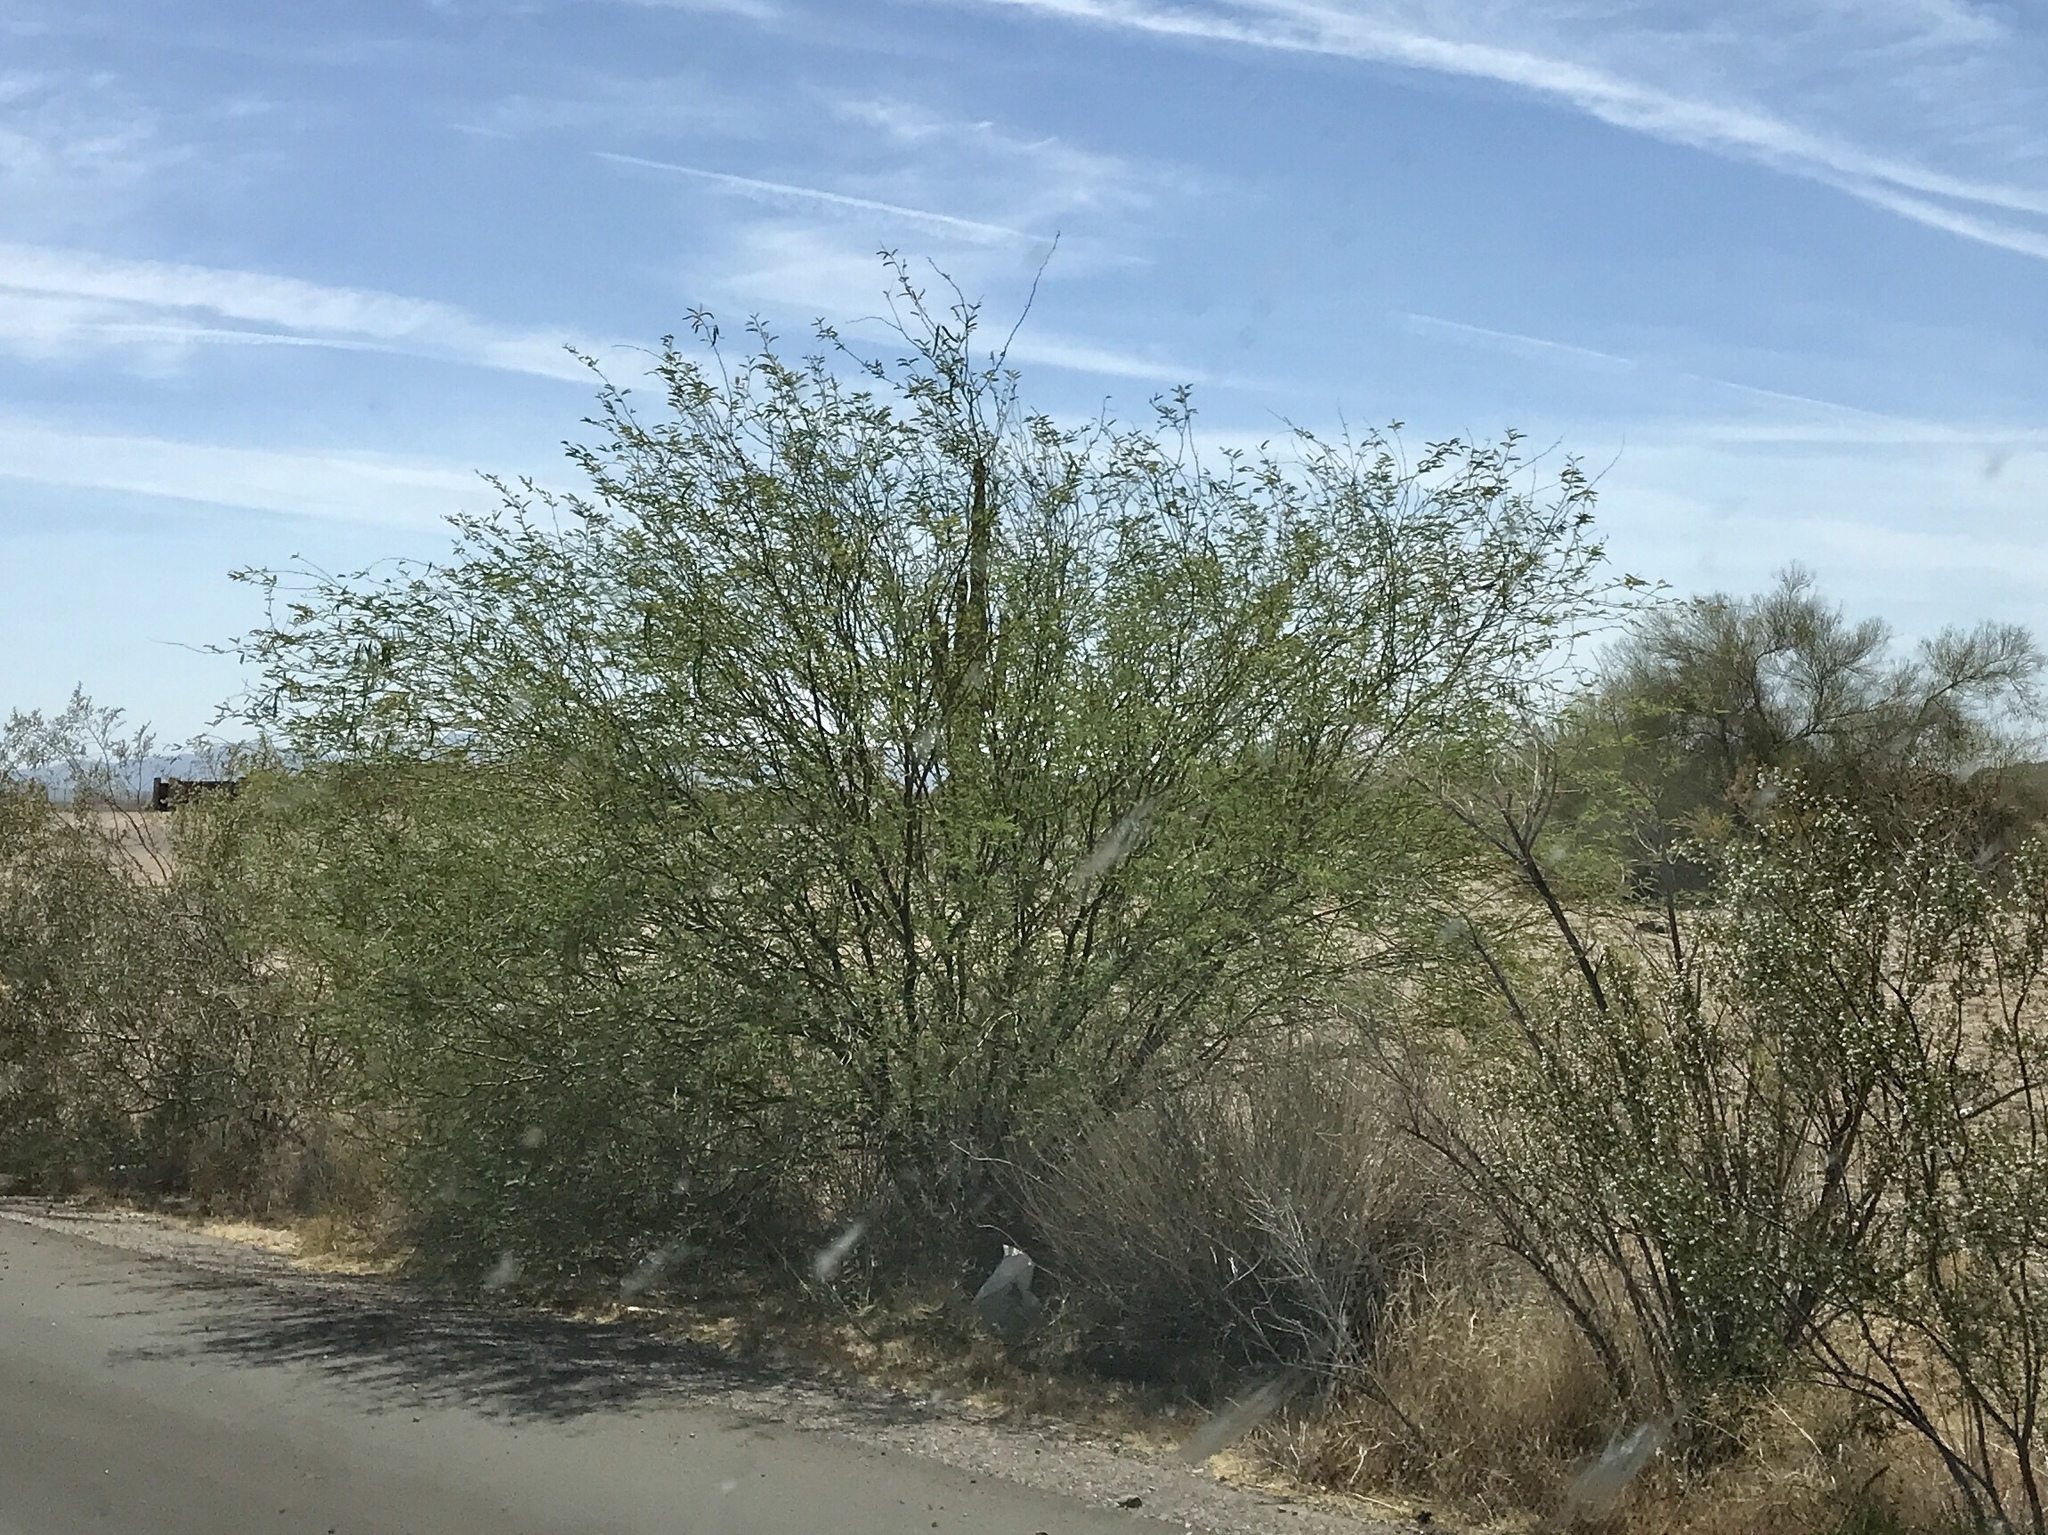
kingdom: Plantae
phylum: Tracheophyta
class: Magnoliopsida
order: Fabales
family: Fabaceae
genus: Olneya
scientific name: Olneya tesota
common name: Desert ironwood
